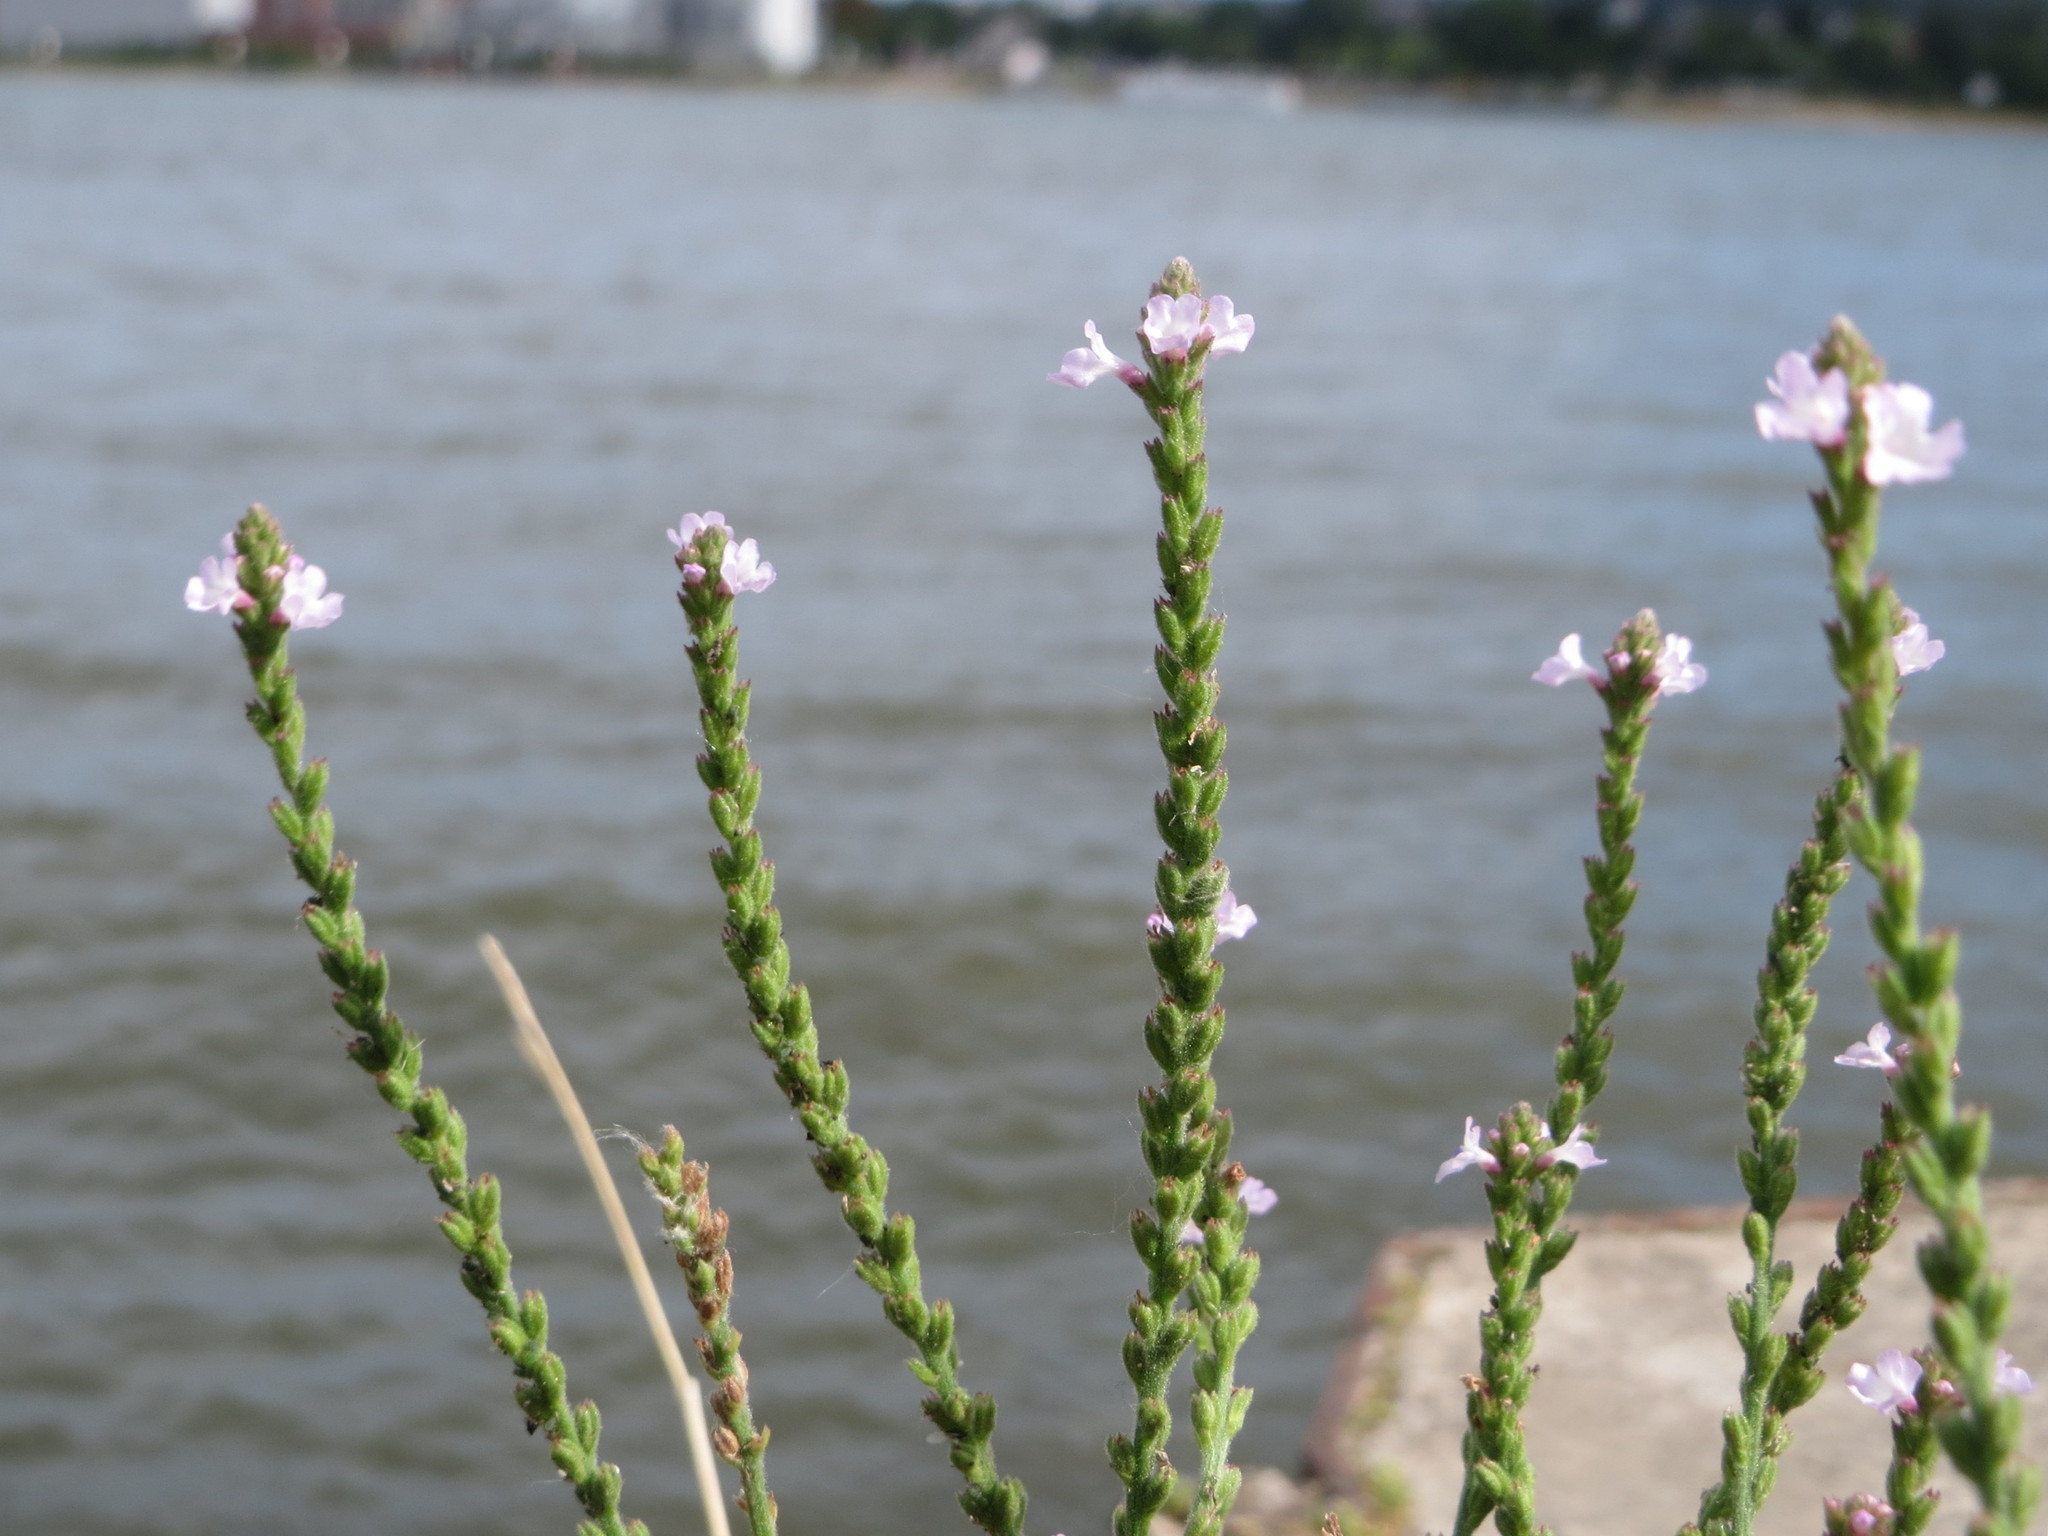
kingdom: Plantae
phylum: Tracheophyta
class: Magnoliopsida
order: Lamiales
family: Verbenaceae
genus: Verbena
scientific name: Verbena officinalis
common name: Vervain
